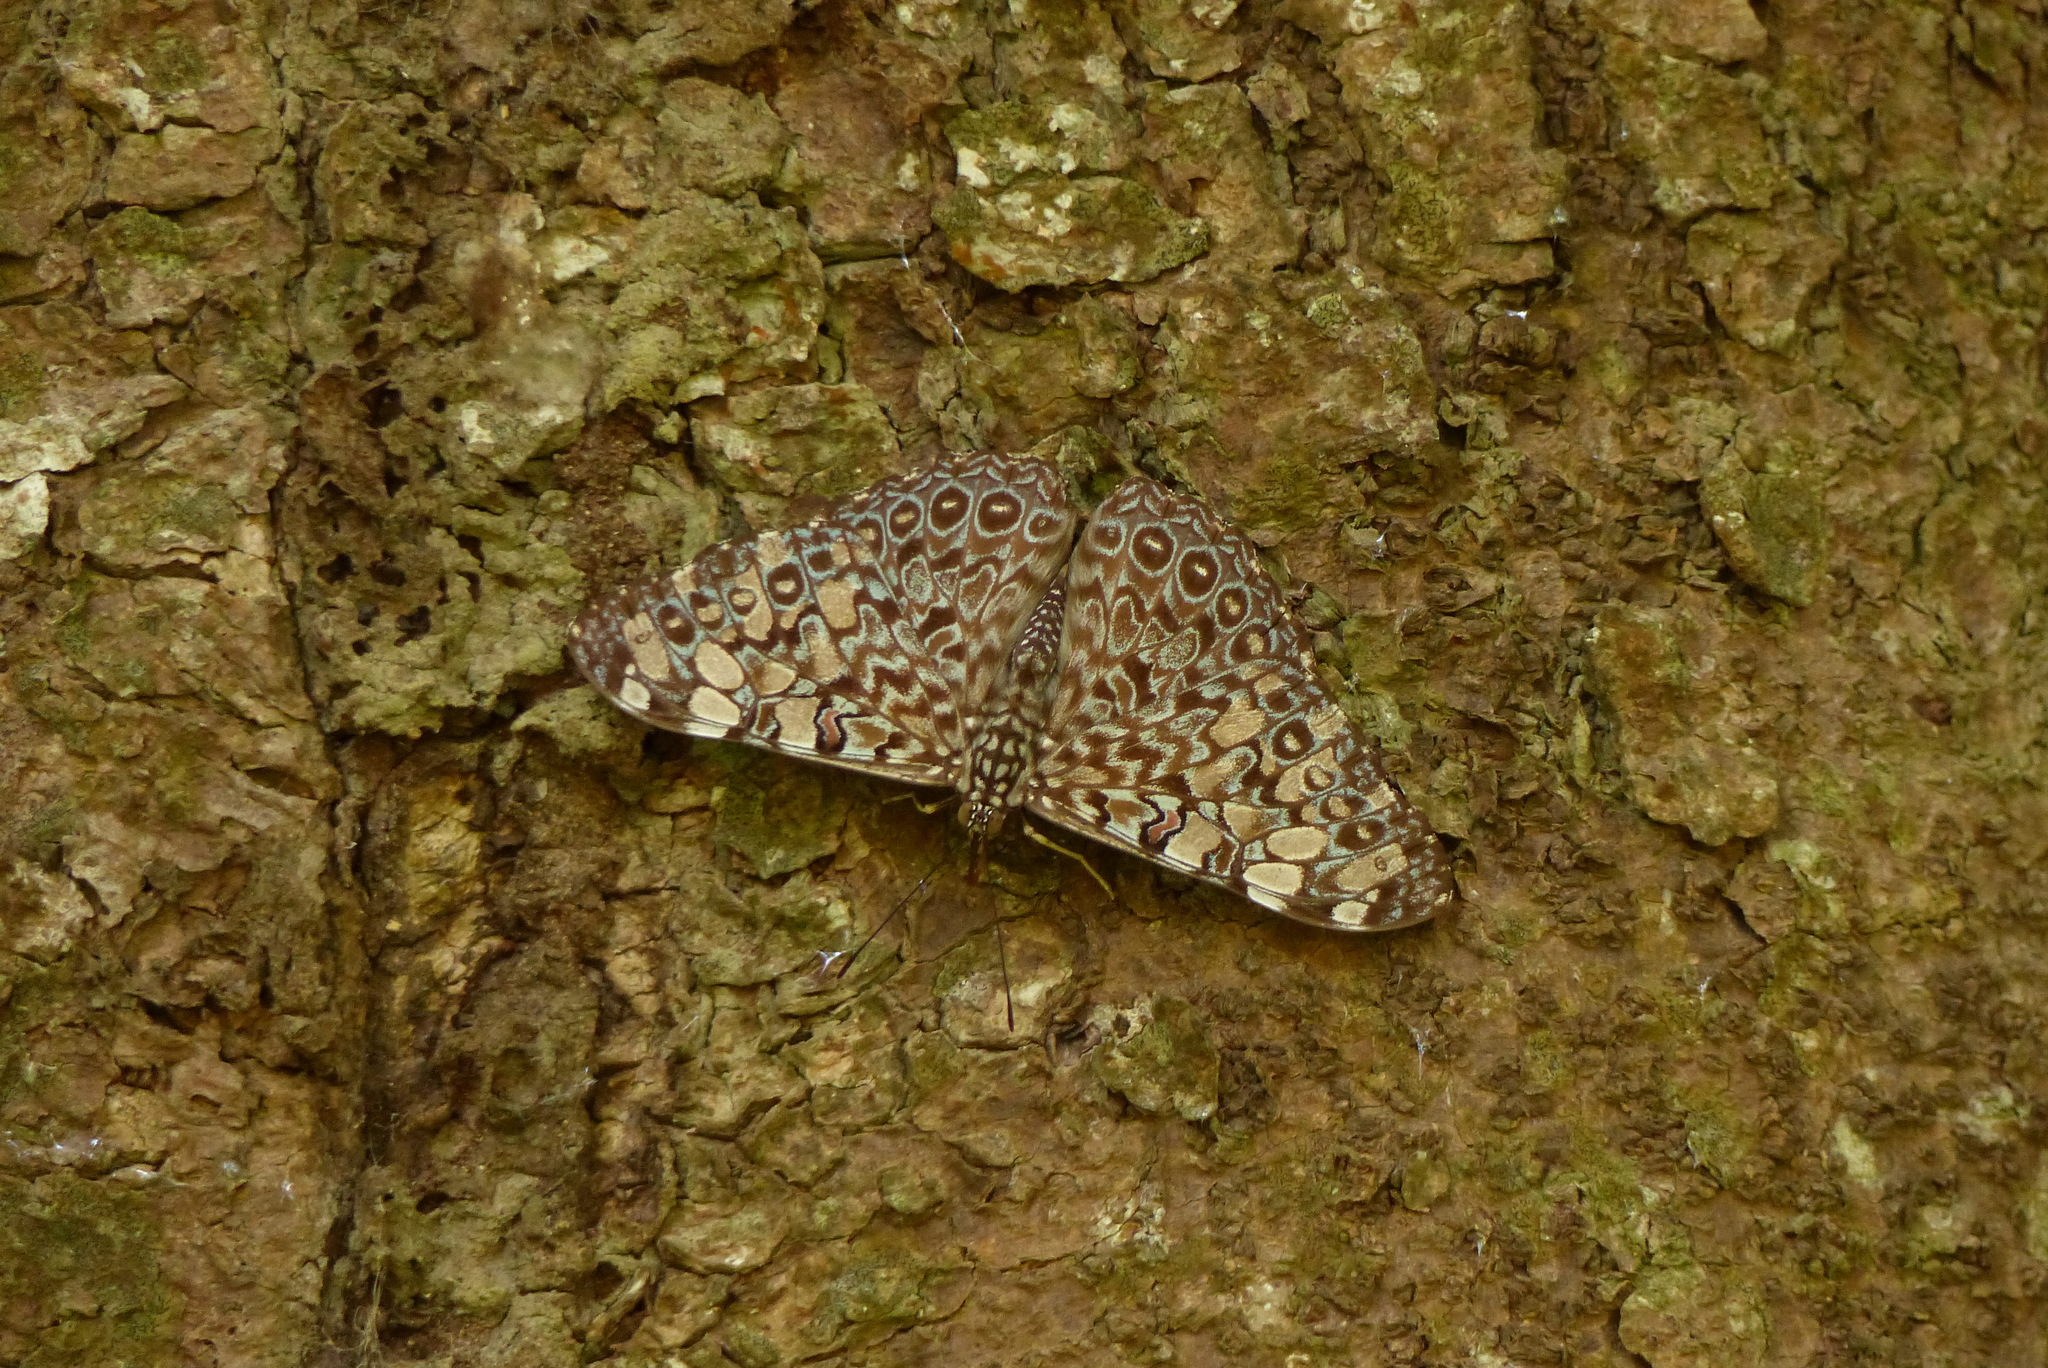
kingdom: Animalia
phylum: Arthropoda
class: Insecta
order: Lepidoptera
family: Nymphalidae
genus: Hamadryas
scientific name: Hamadryas feronia
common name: Variable cracker
